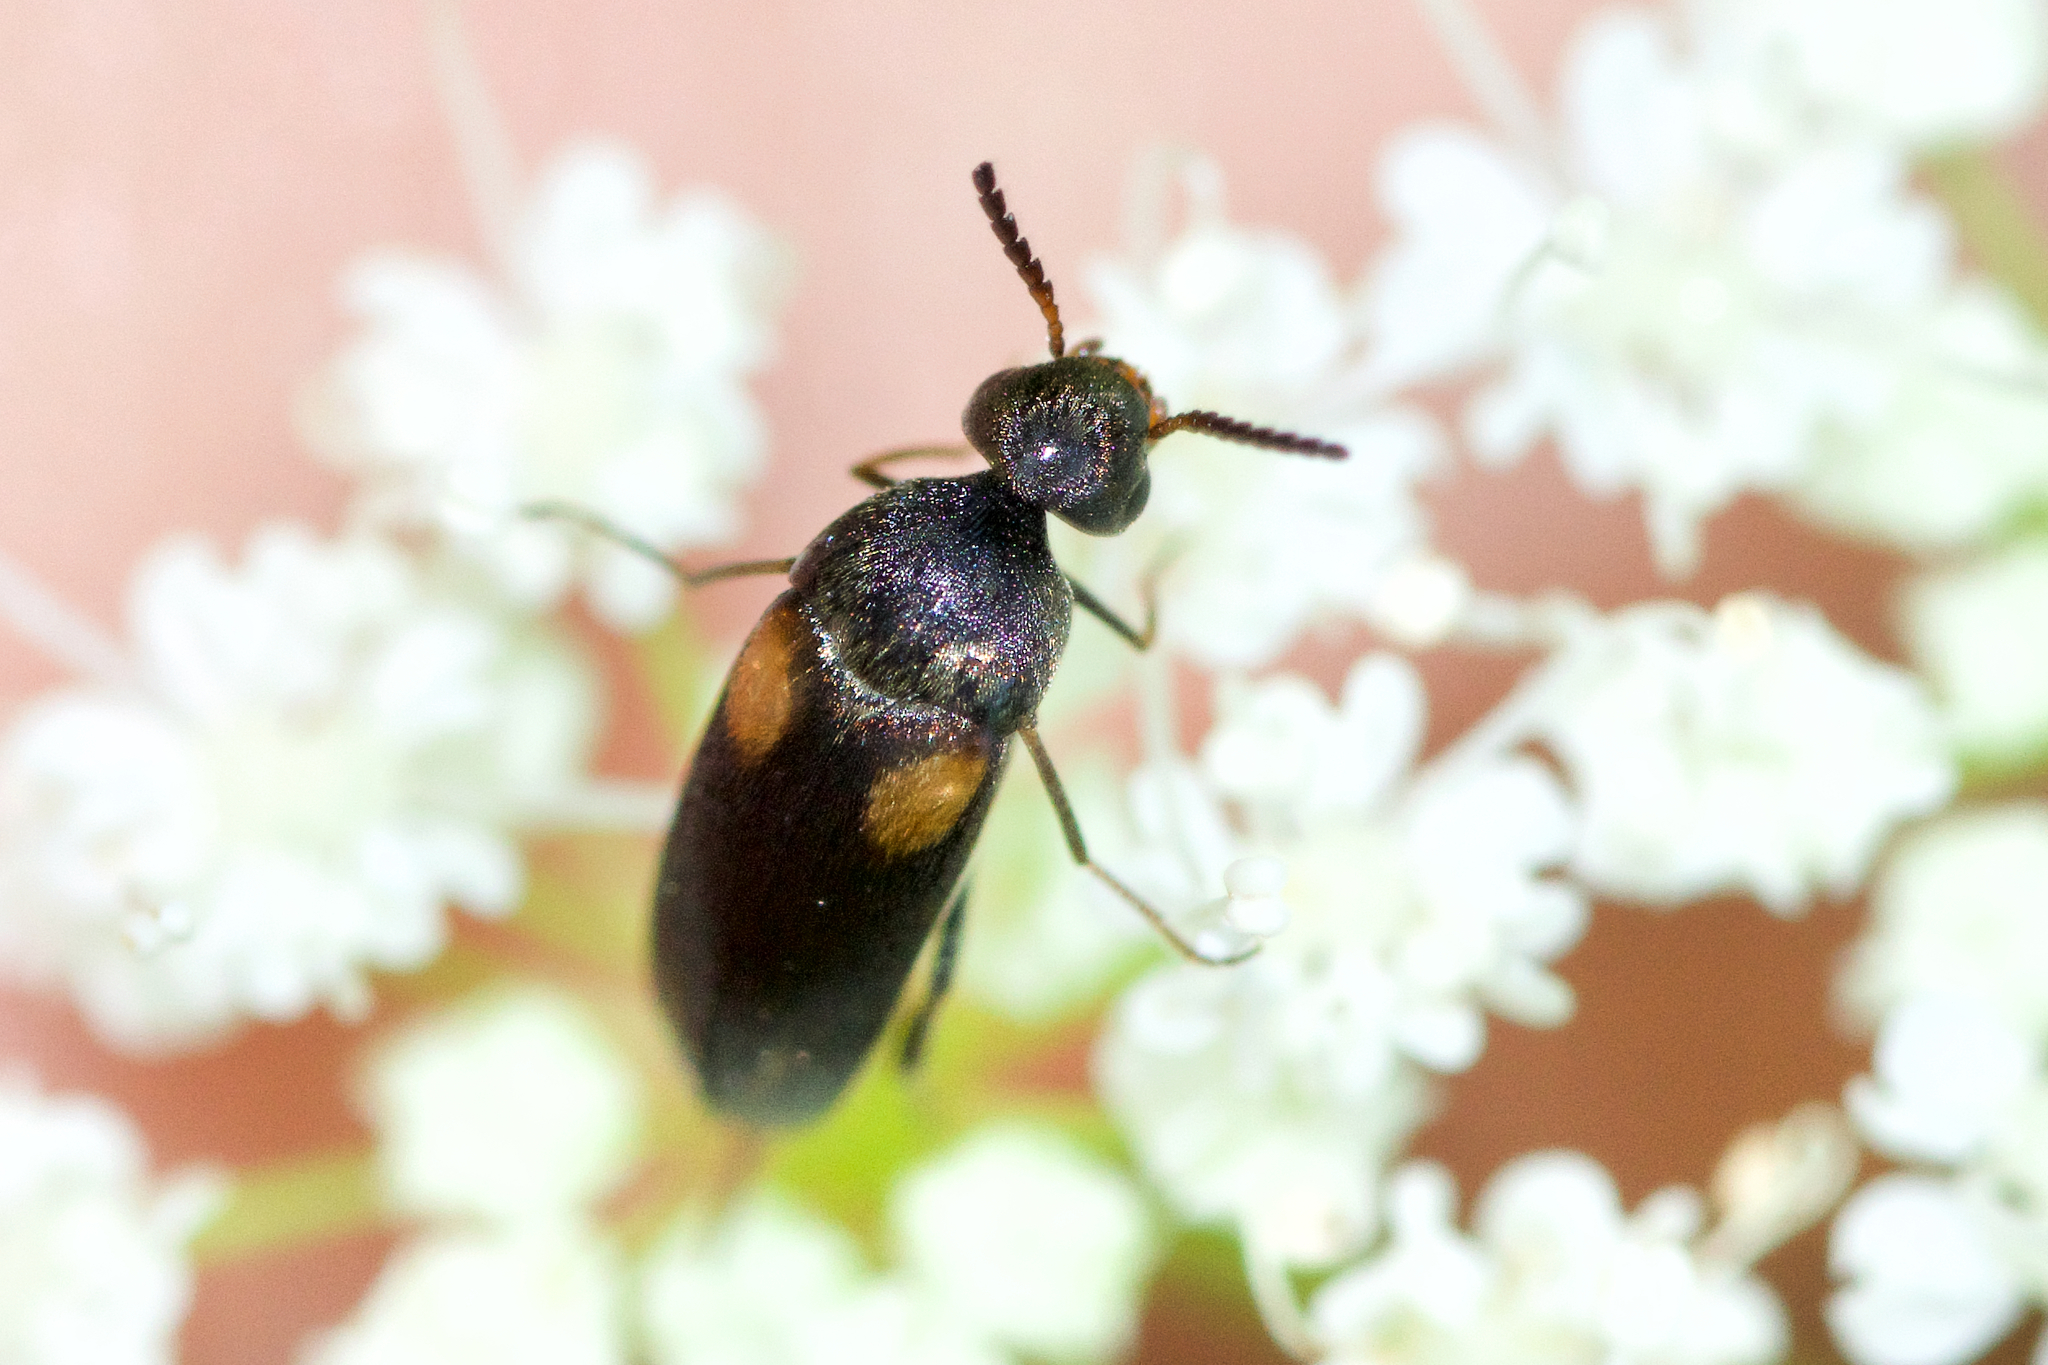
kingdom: Animalia
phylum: Arthropoda
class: Insecta
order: Coleoptera
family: Mordellidae
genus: Mordellochroa
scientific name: Mordellochroa scapularis
